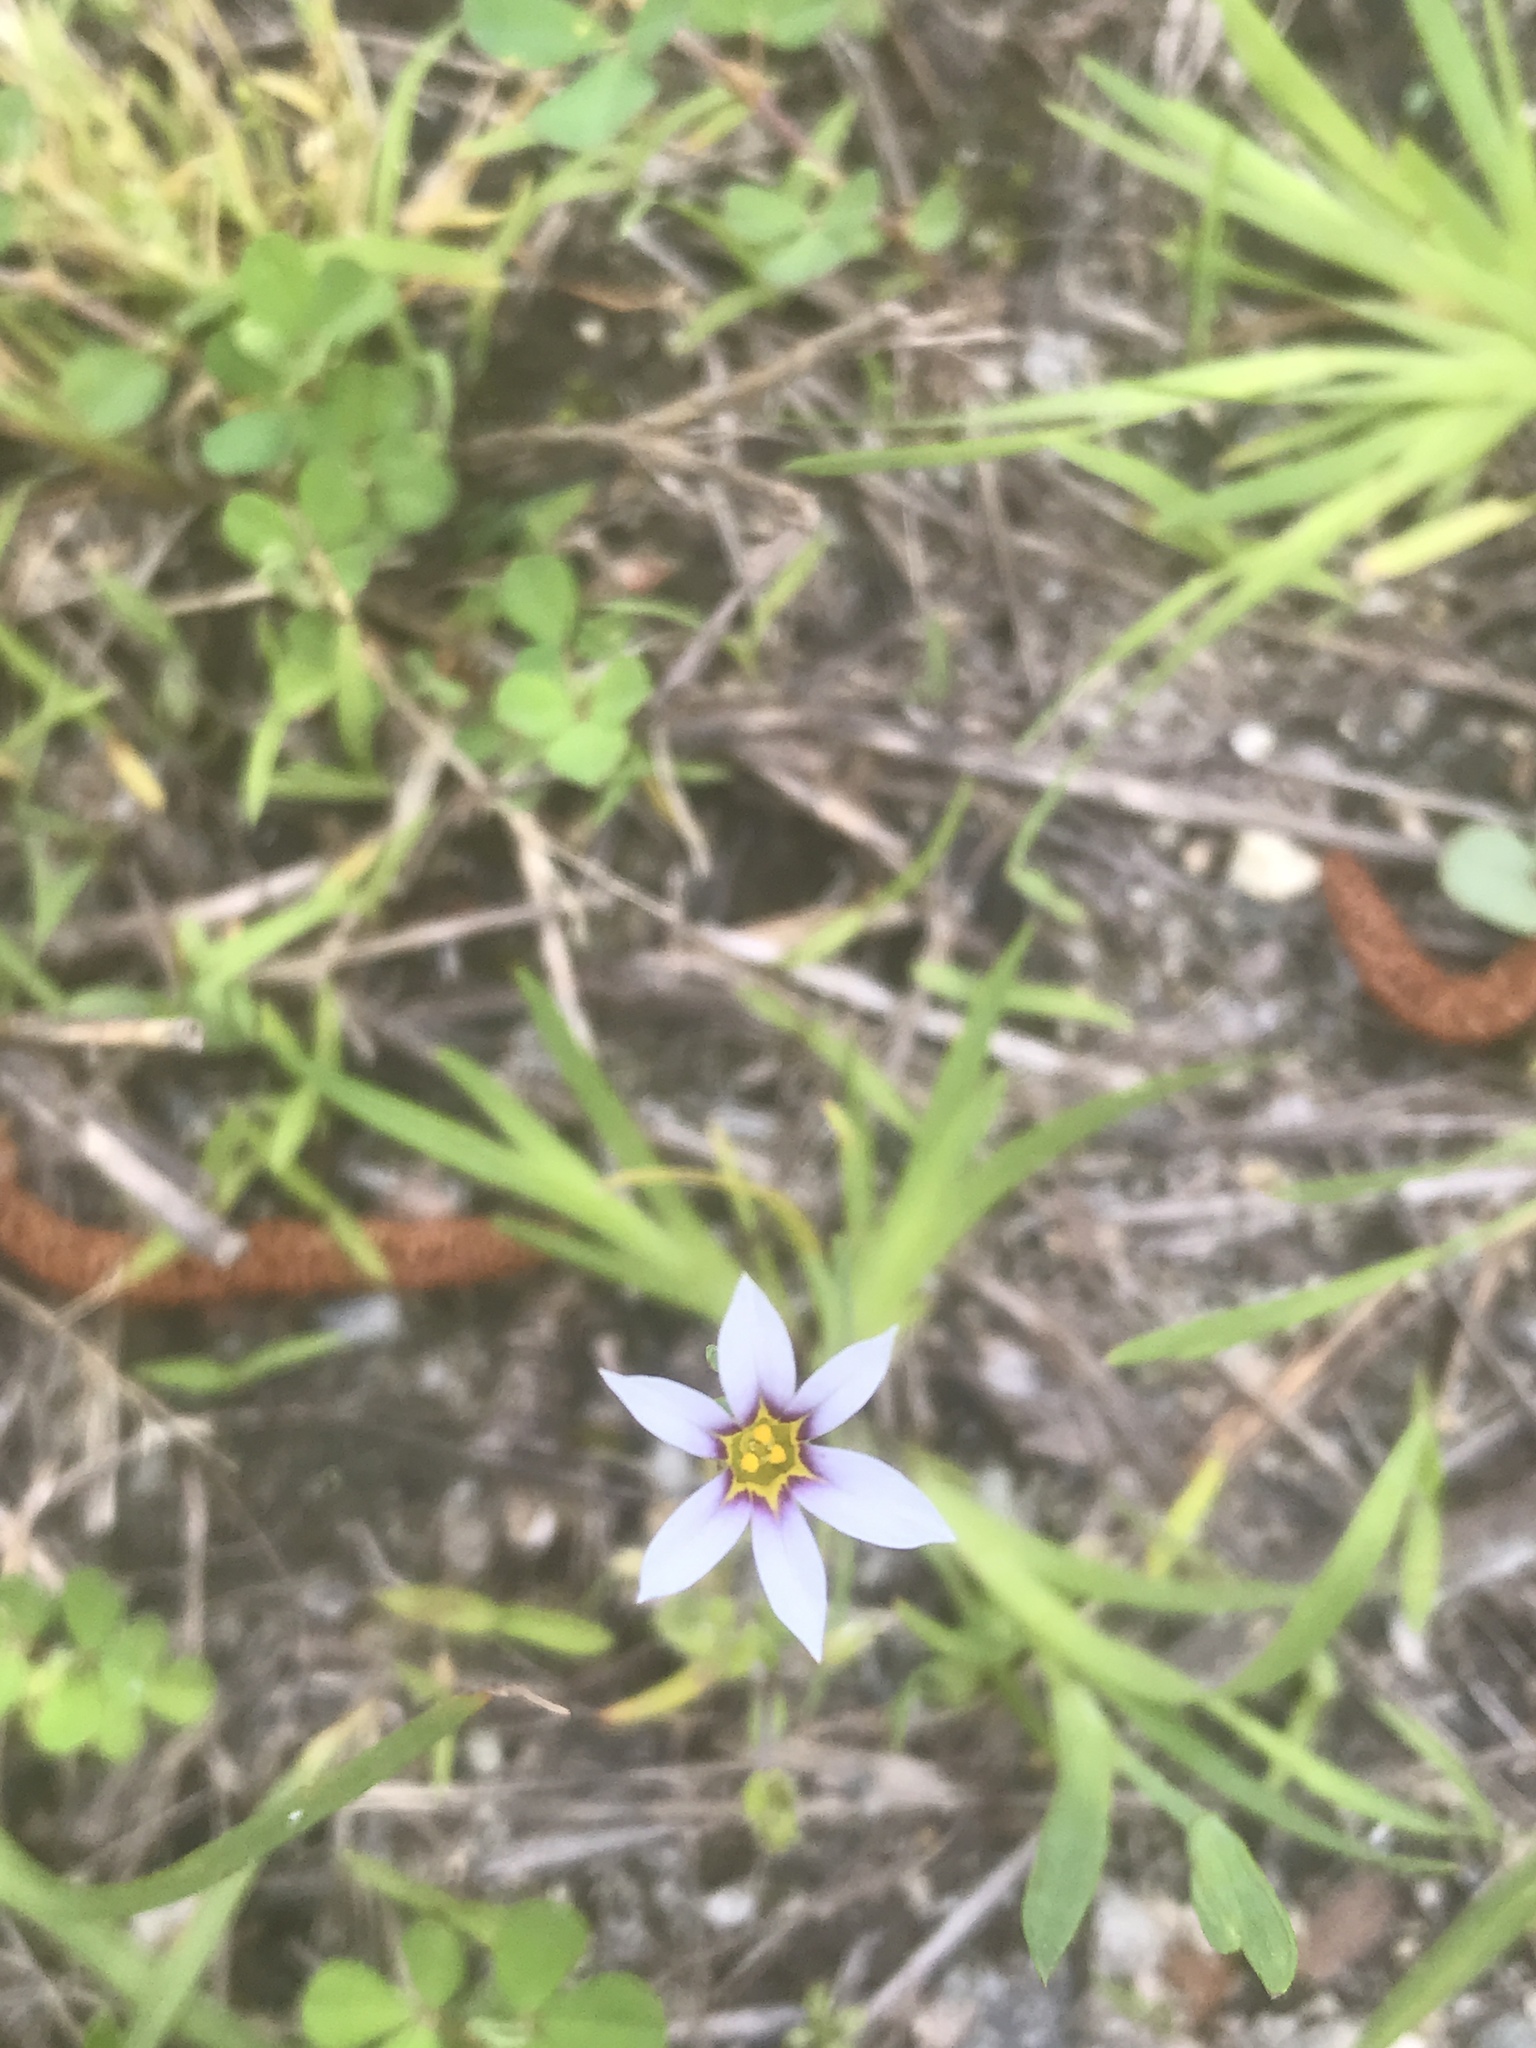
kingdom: Plantae
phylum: Tracheophyta
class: Liliopsida
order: Asparagales
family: Iridaceae
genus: Sisyrinchium
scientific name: Sisyrinchium micranthum
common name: Bermuda pigroot
